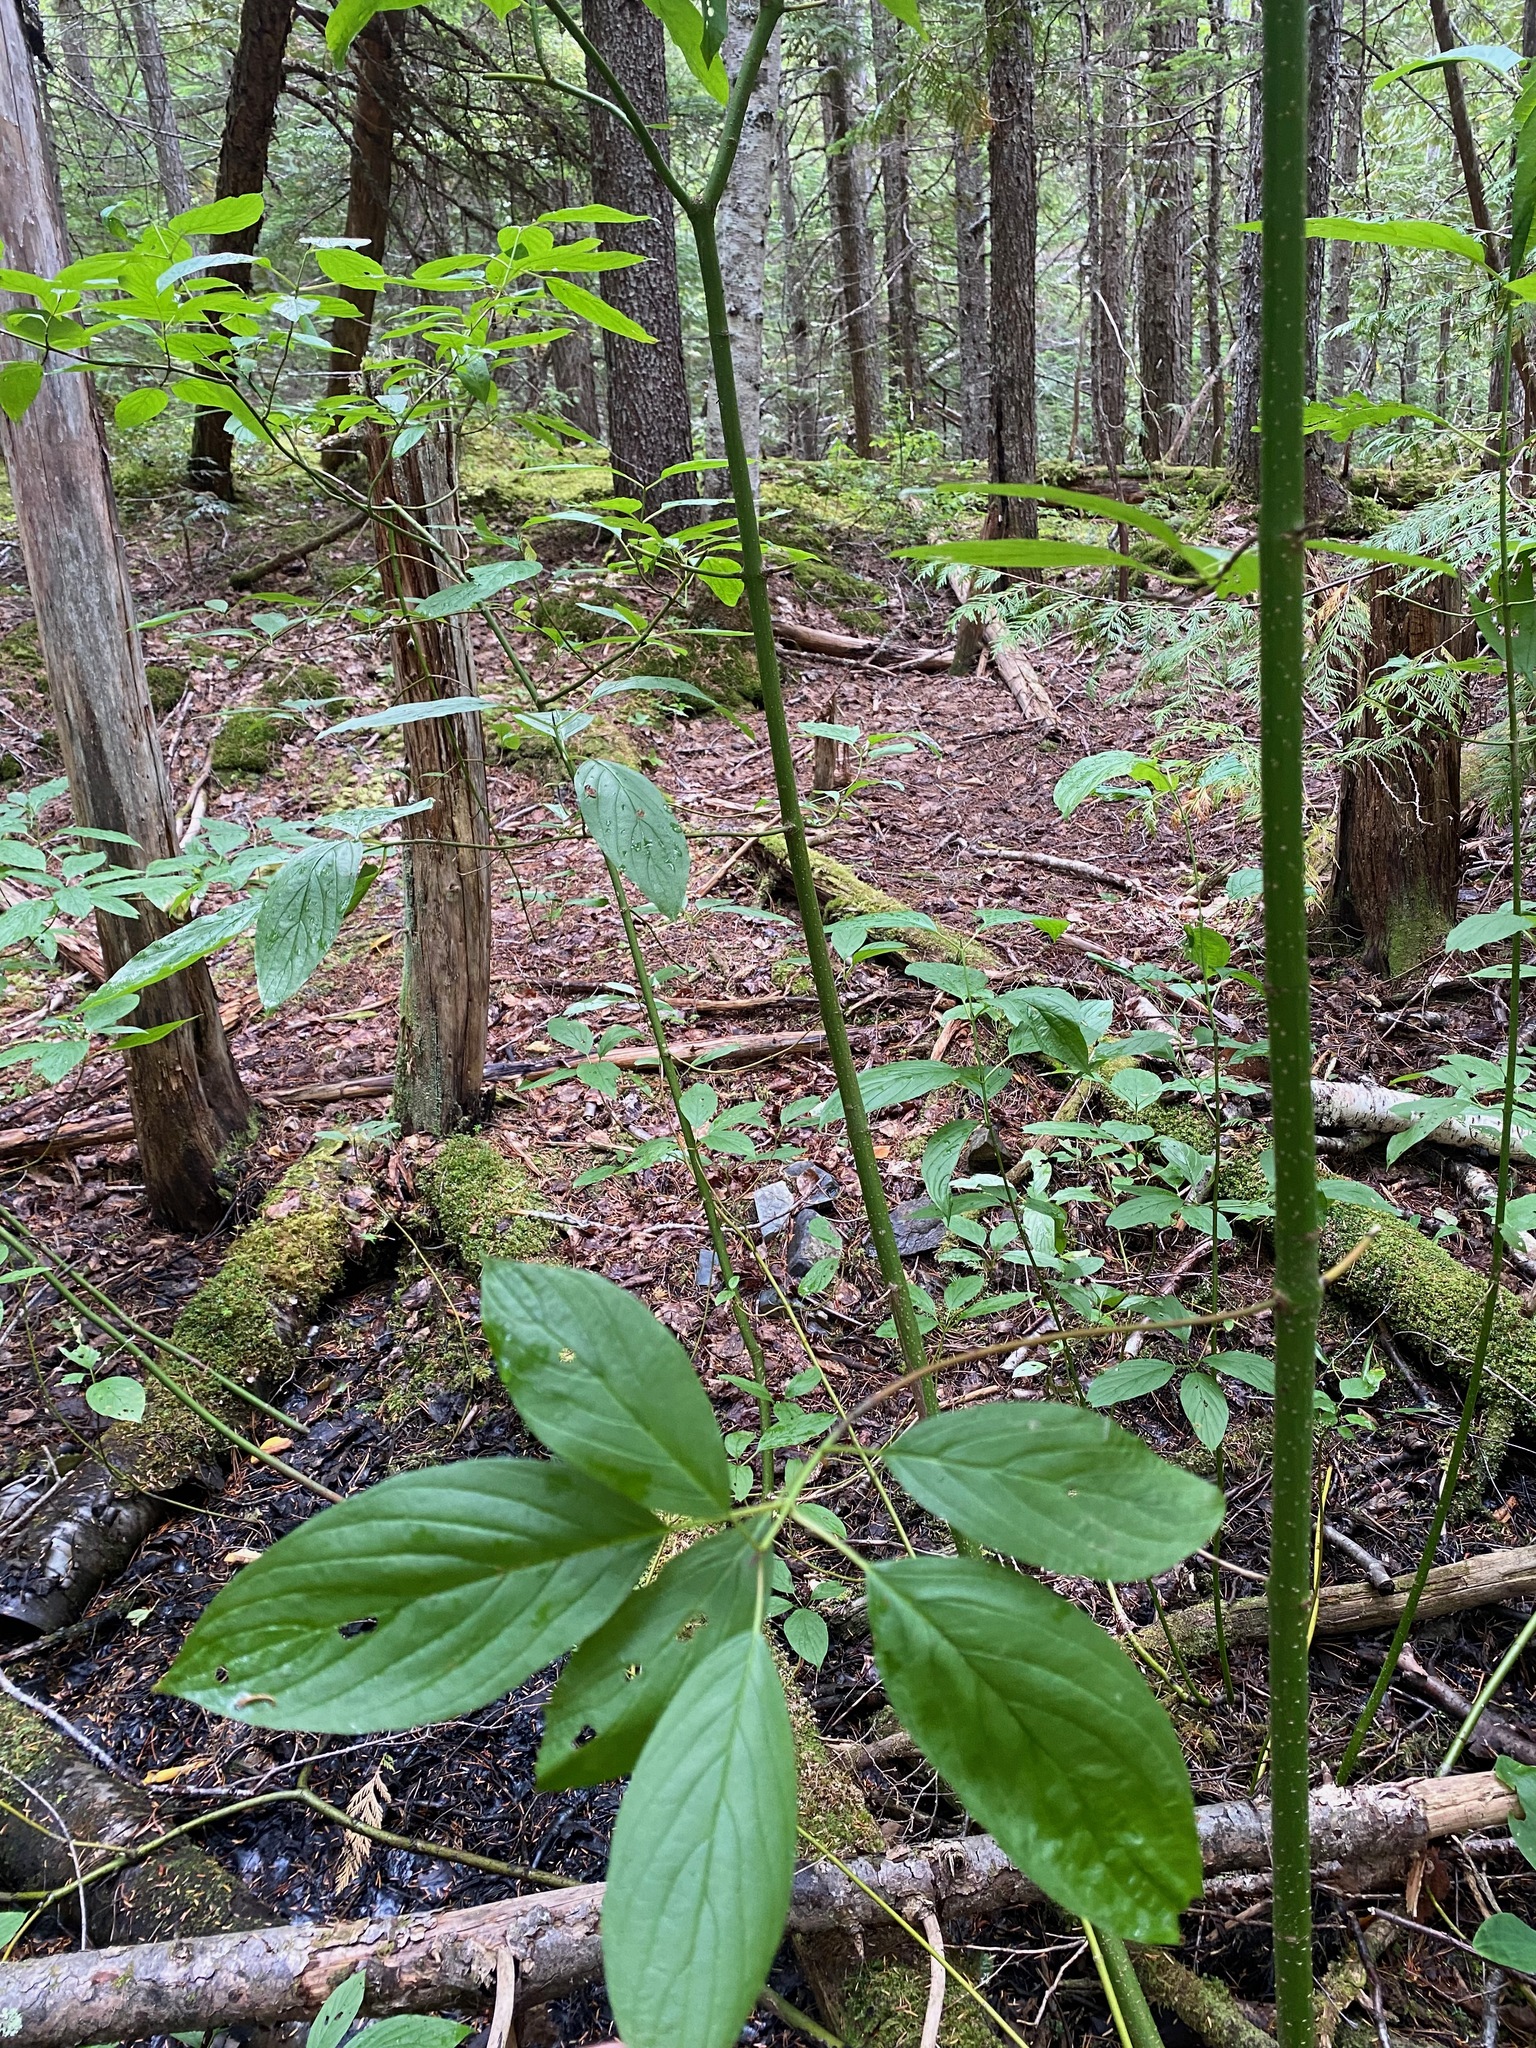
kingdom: Plantae
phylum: Tracheophyta
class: Magnoliopsida
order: Cornales
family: Cornaceae
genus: Cornus
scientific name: Cornus sericea
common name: Red-osier dogwood
